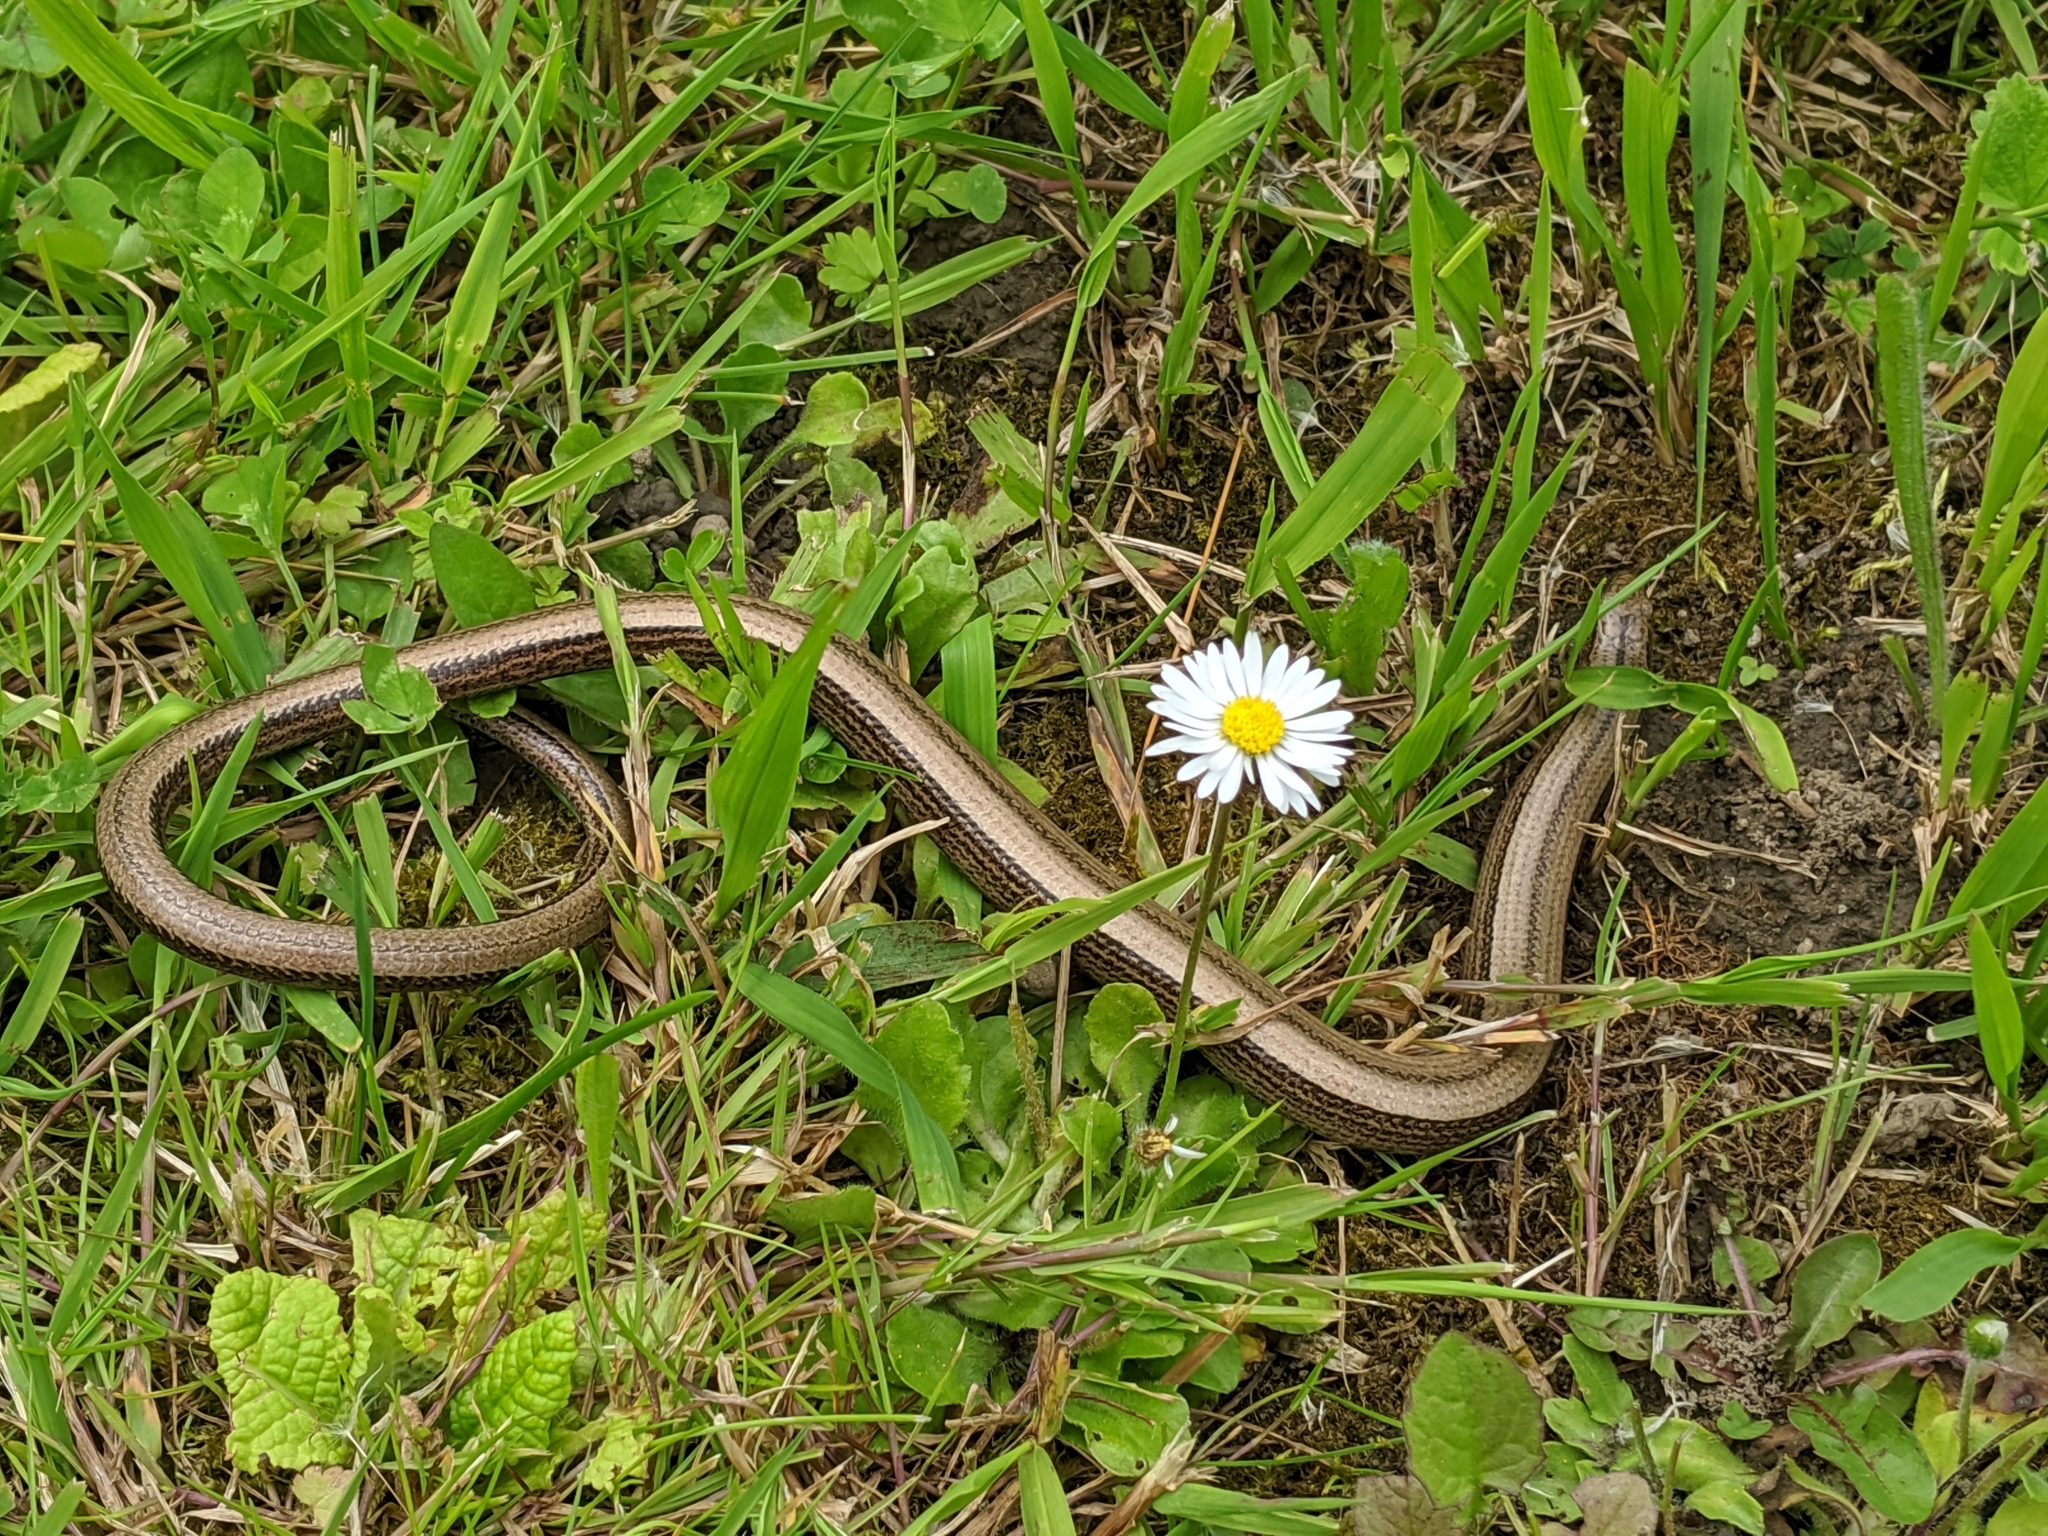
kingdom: Animalia
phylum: Chordata
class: Squamata
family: Anguidae
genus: Anguis
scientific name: Anguis fragilis
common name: Slow worm
